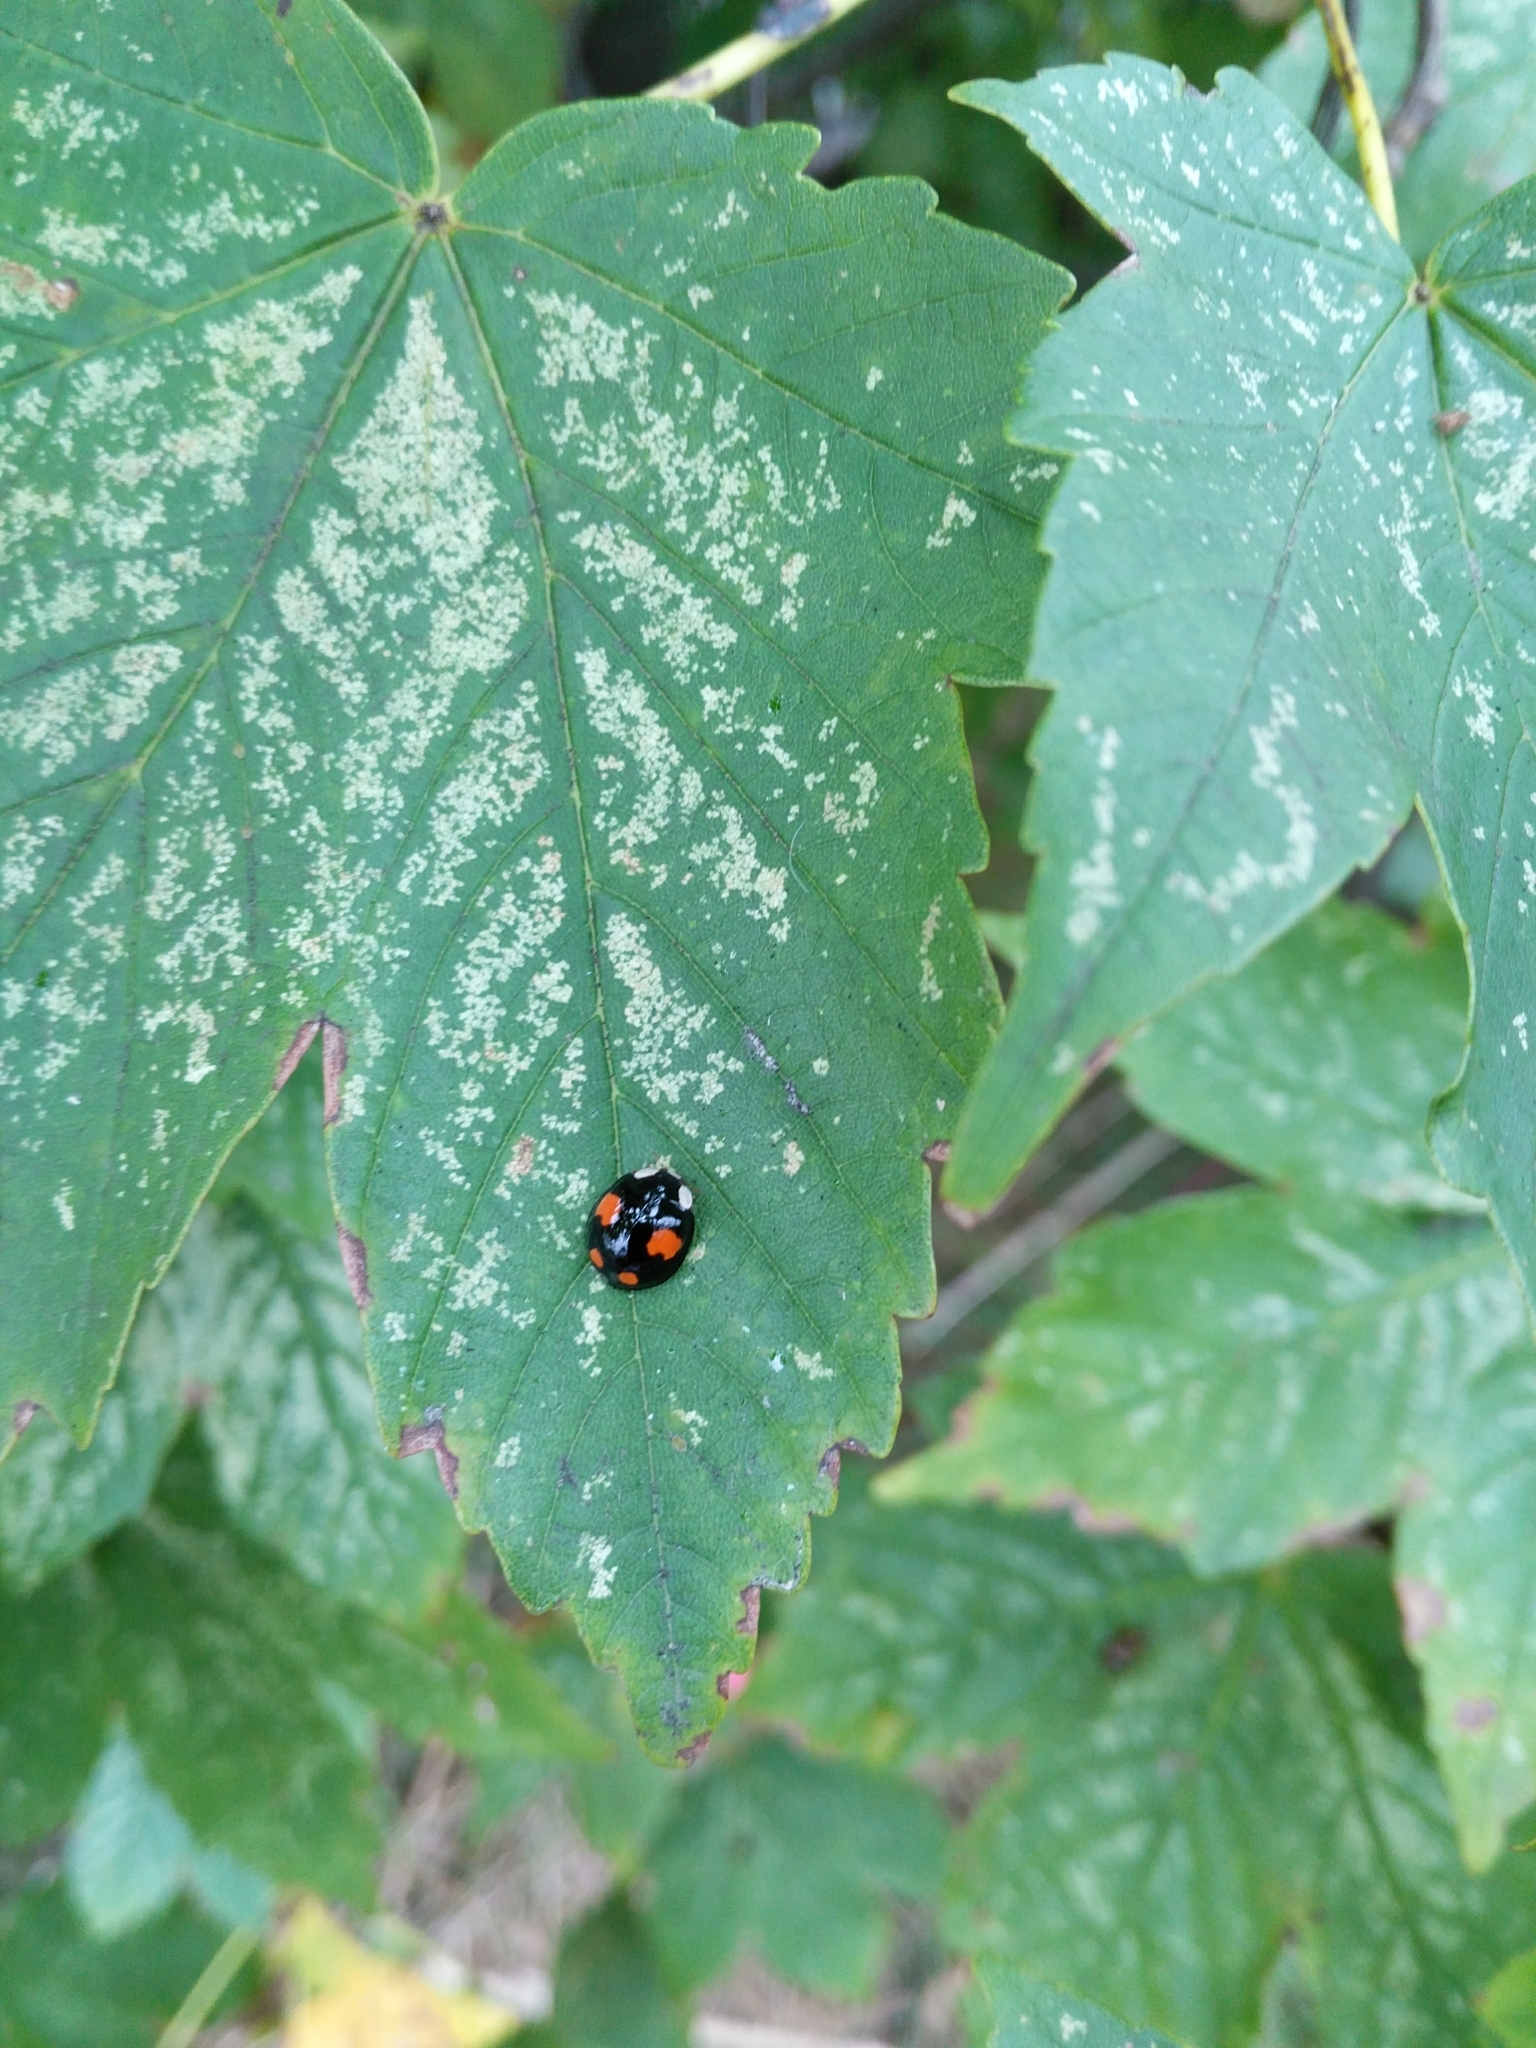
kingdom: Animalia
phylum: Arthropoda
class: Insecta
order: Coleoptera
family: Coccinellidae
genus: Harmonia
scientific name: Harmonia axyridis
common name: Harlequin ladybird
